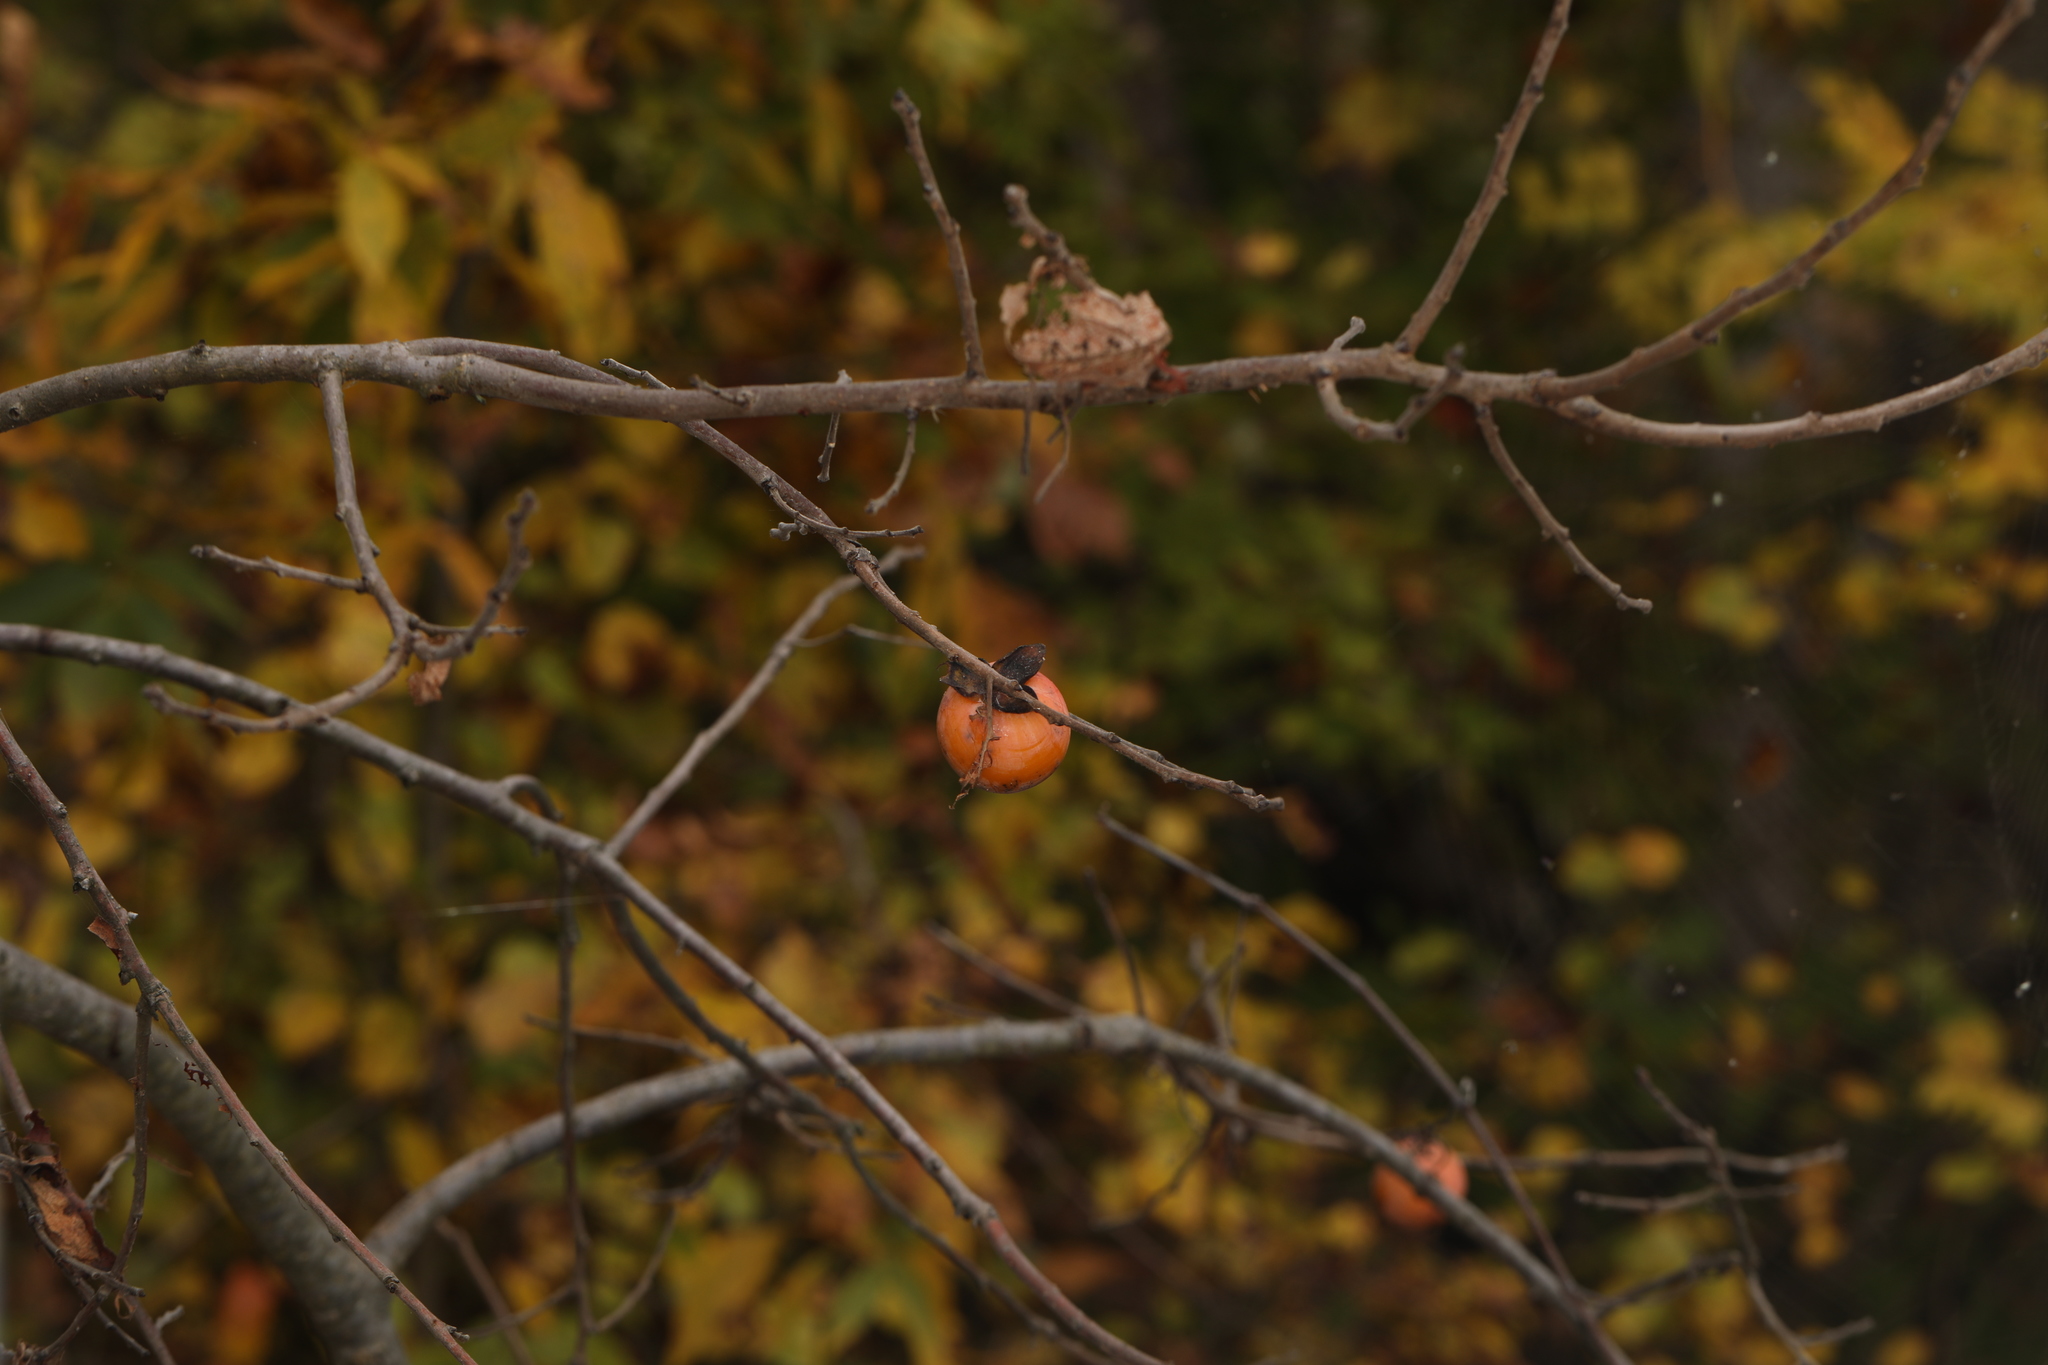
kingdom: Plantae
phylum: Tracheophyta
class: Magnoliopsida
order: Ericales
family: Ebenaceae
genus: Diospyros
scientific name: Diospyros virginiana
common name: Persimmon
